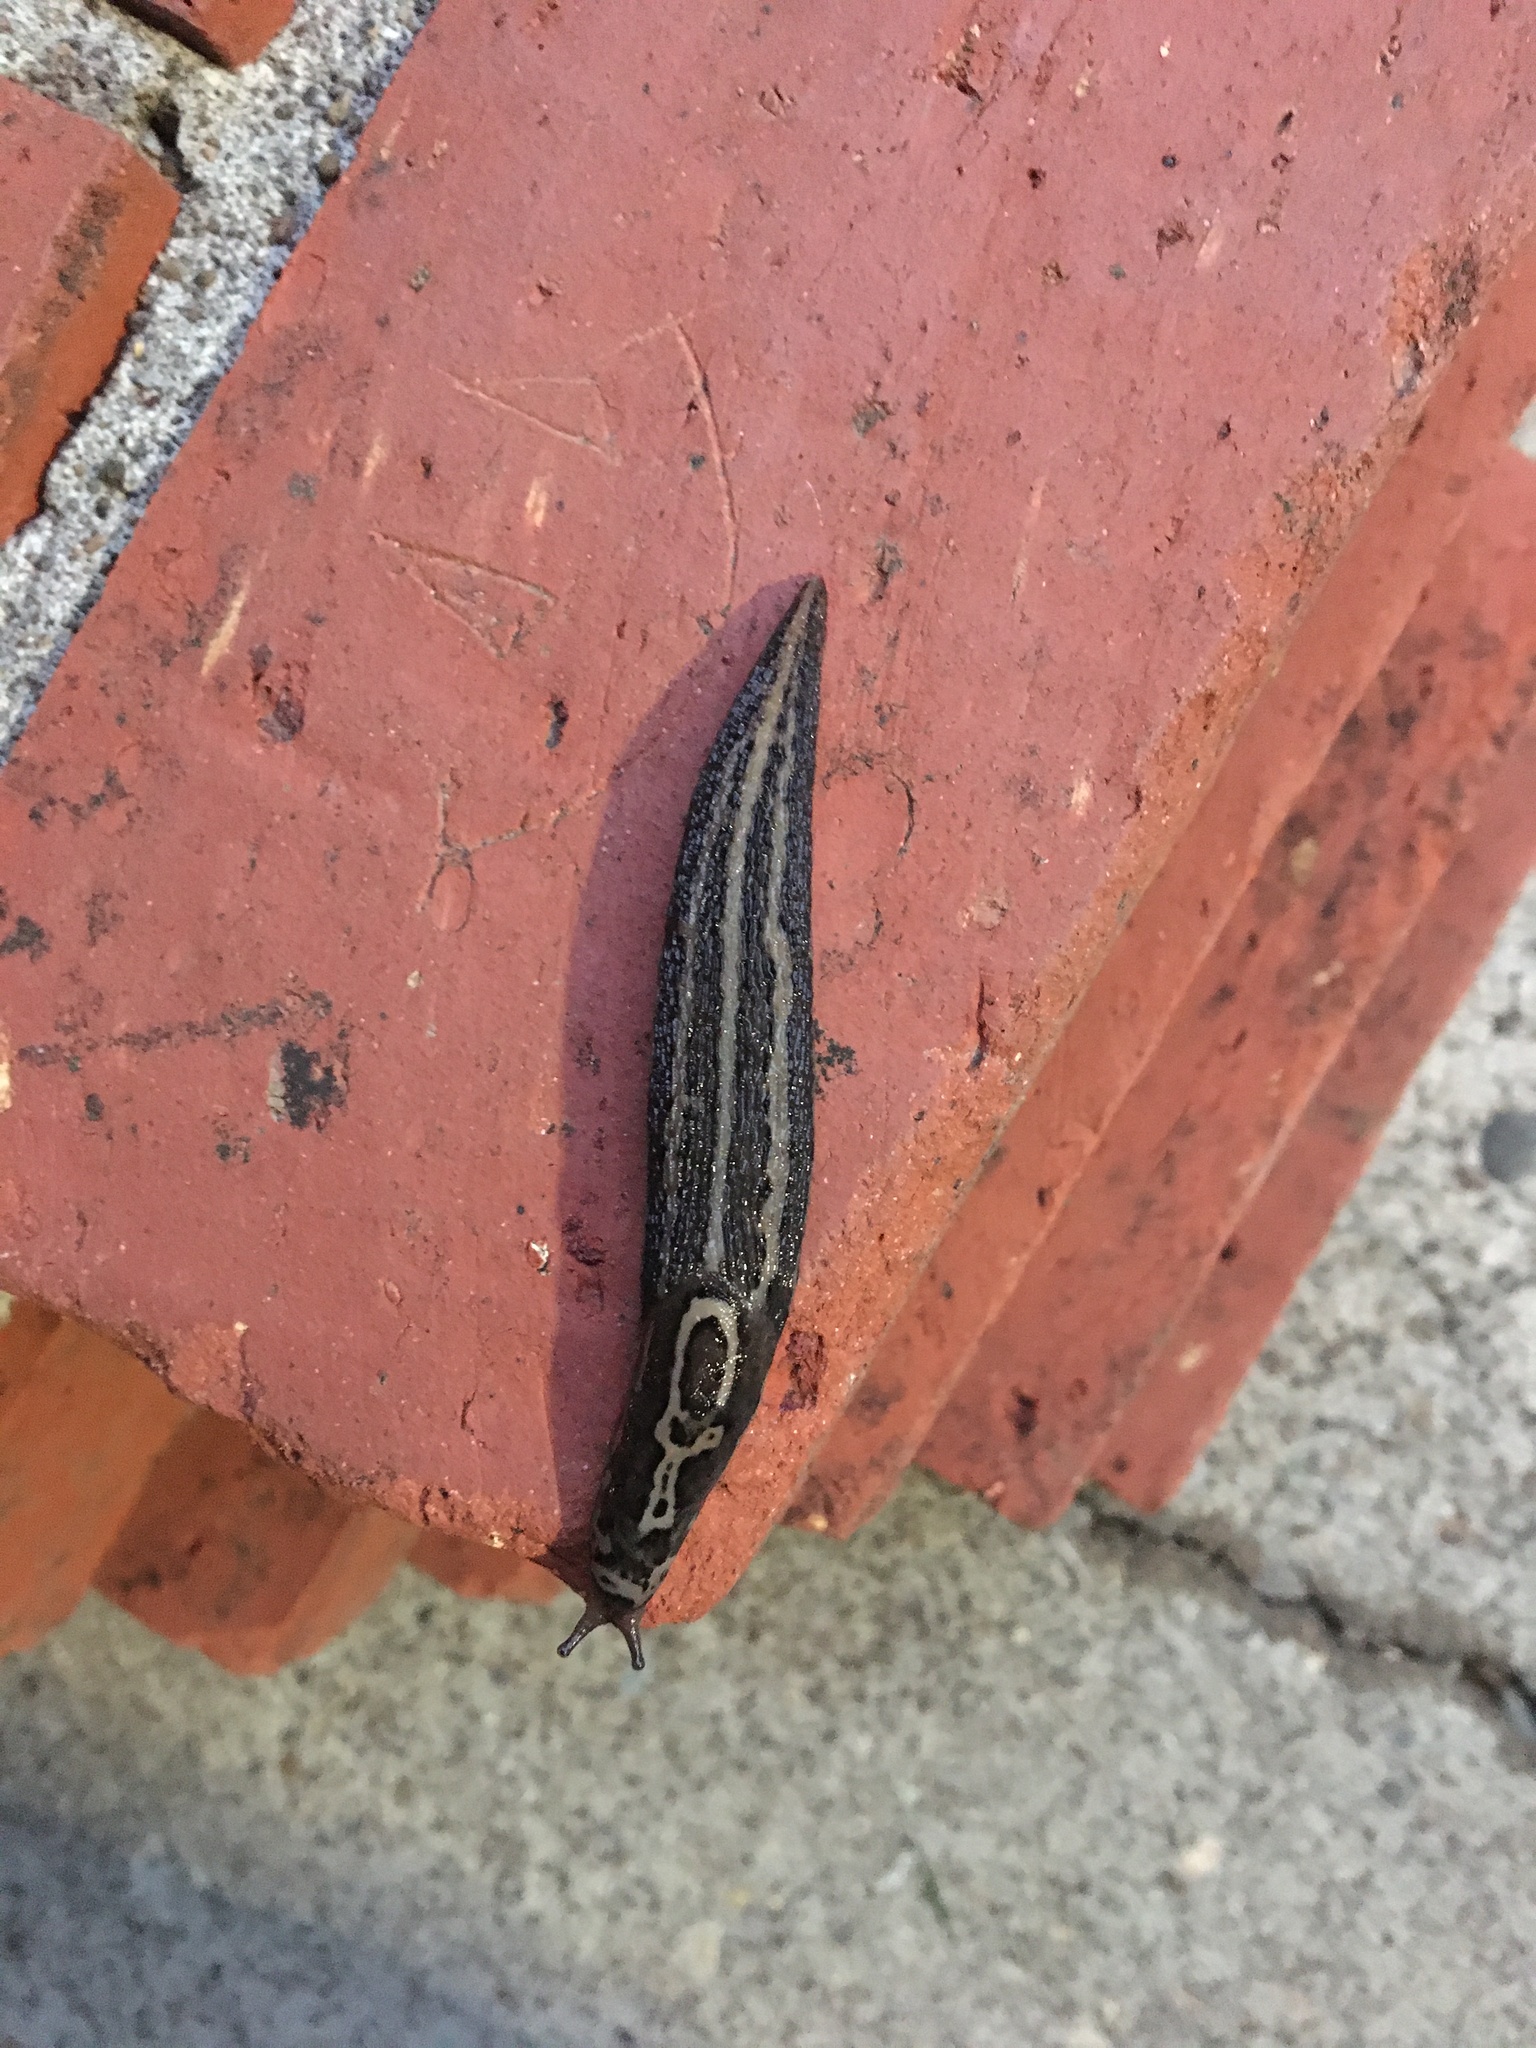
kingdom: Animalia
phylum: Mollusca
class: Gastropoda
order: Stylommatophora
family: Limacidae
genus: Limax
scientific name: Limax maximus
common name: Great grey slug
